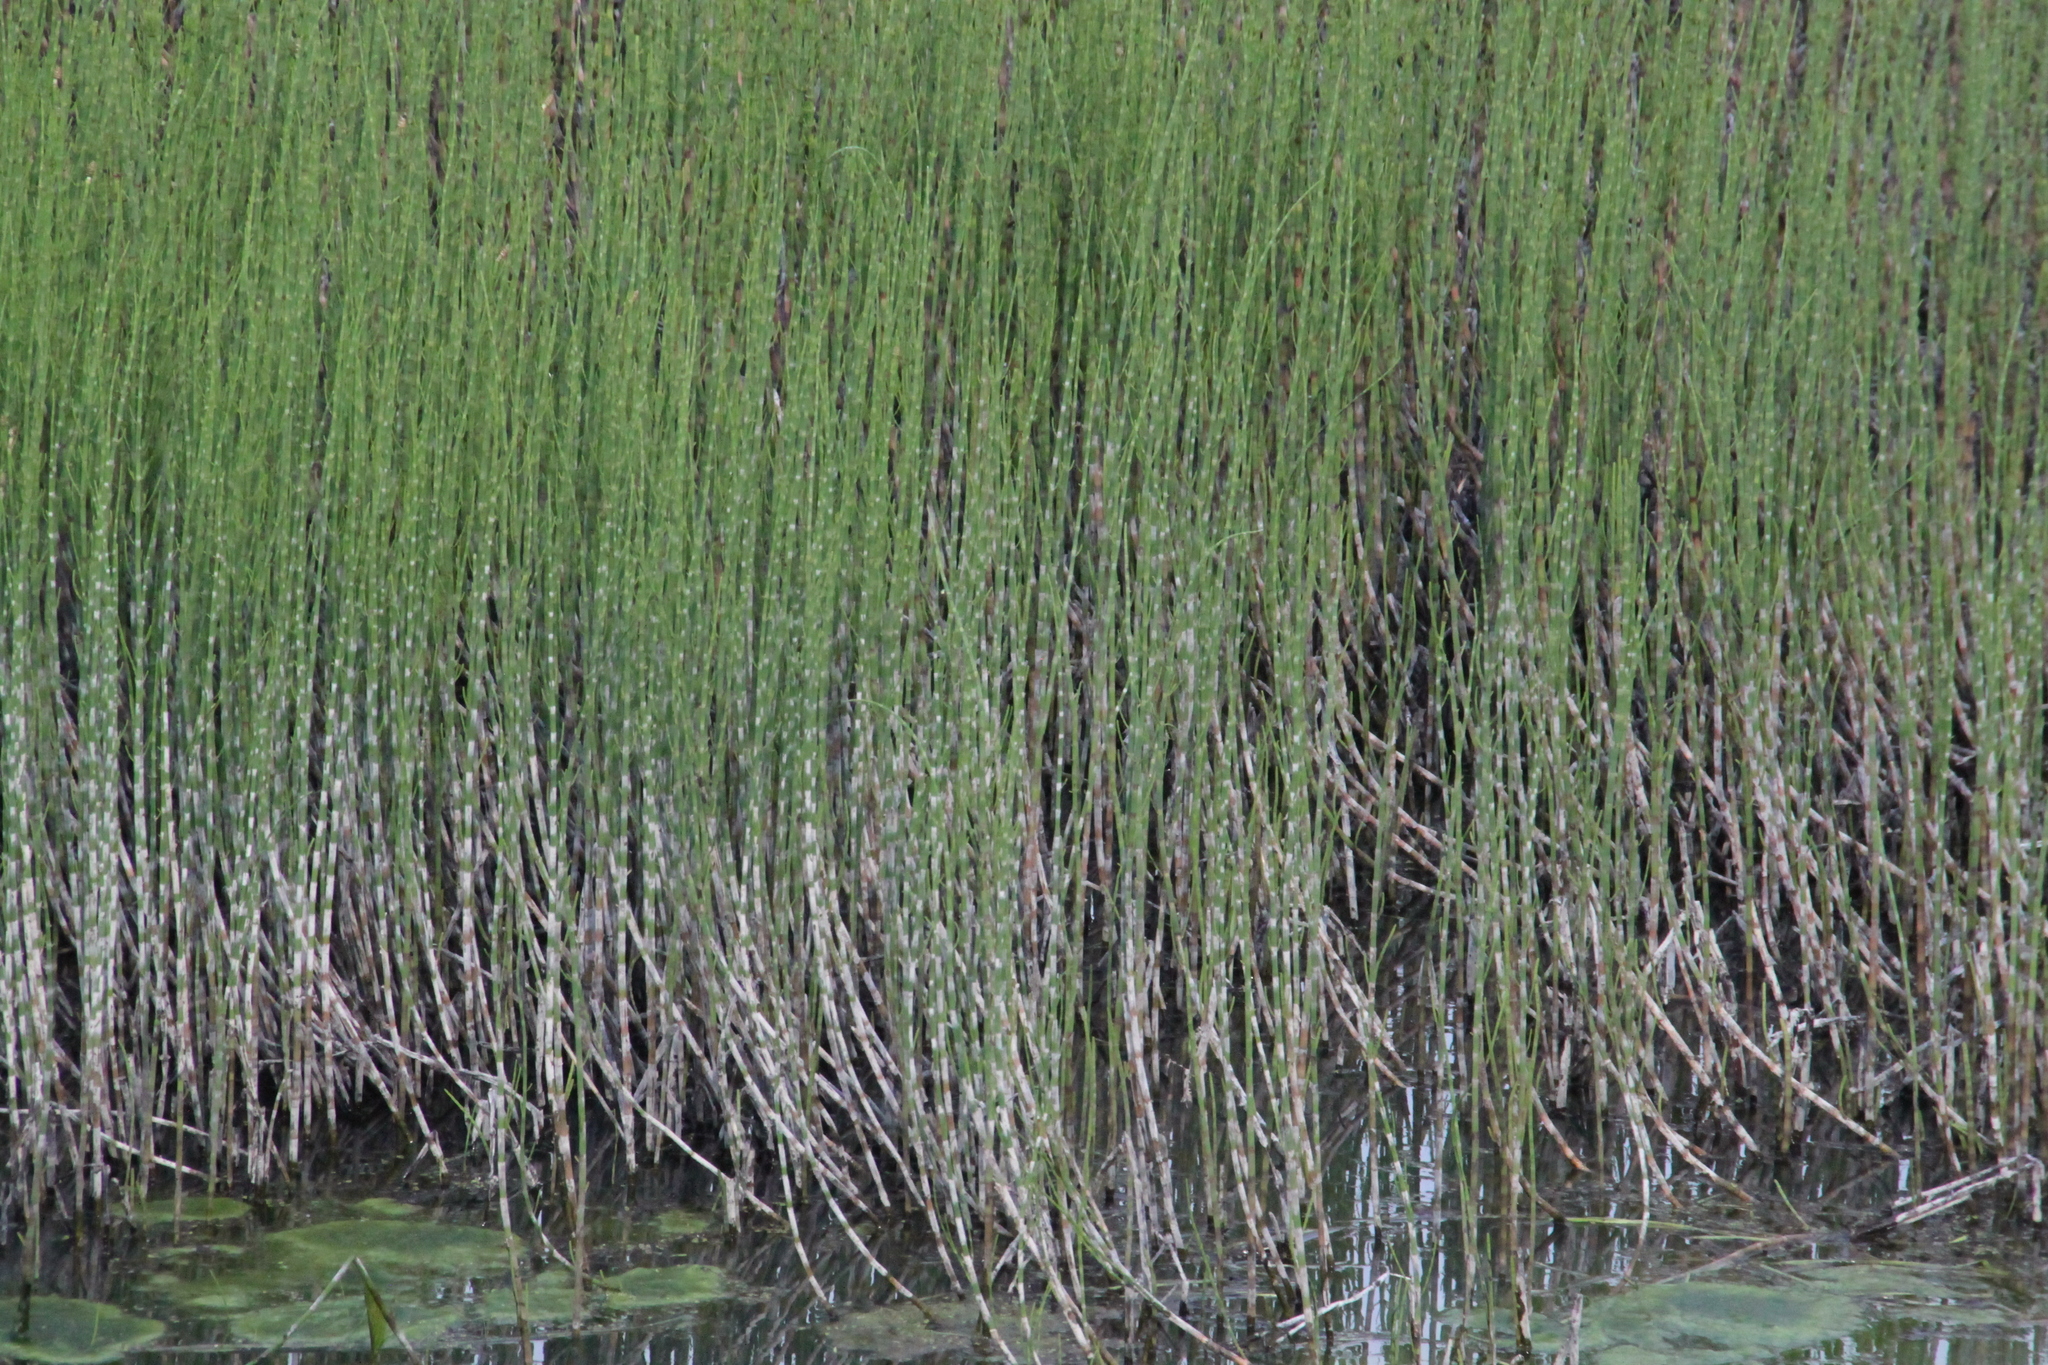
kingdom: Plantae
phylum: Tracheophyta
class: Polypodiopsida
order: Equisetales
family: Equisetaceae
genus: Equisetum
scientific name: Equisetum fluviatile
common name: Water horsetail
